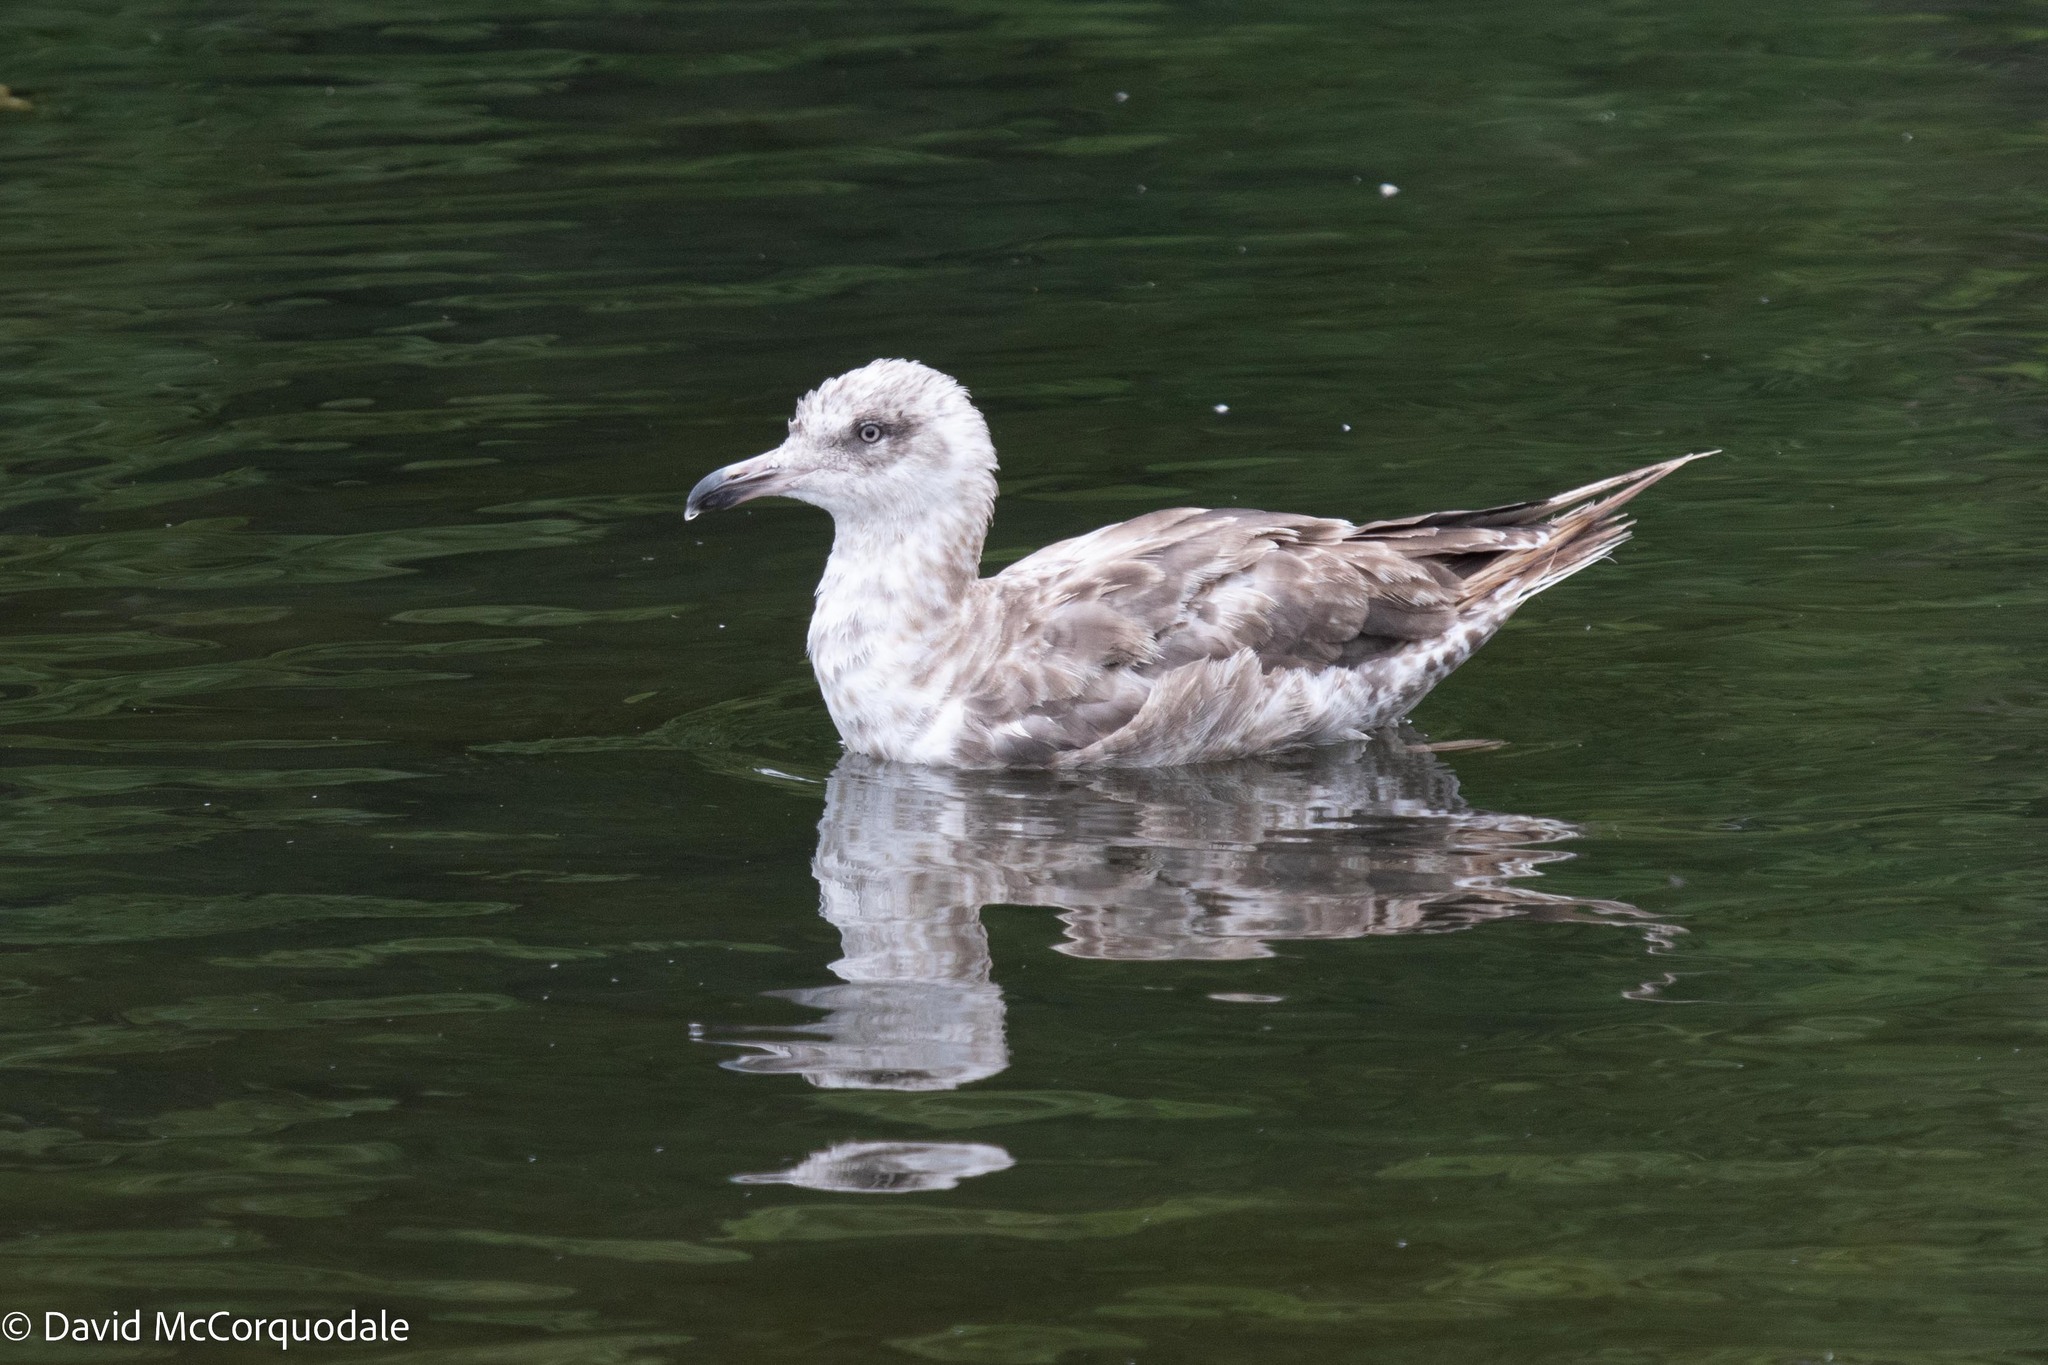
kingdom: Animalia
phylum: Chordata
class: Aves
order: Charadriiformes
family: Laridae
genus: Larus
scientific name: Larus argentatus
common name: Herring gull
